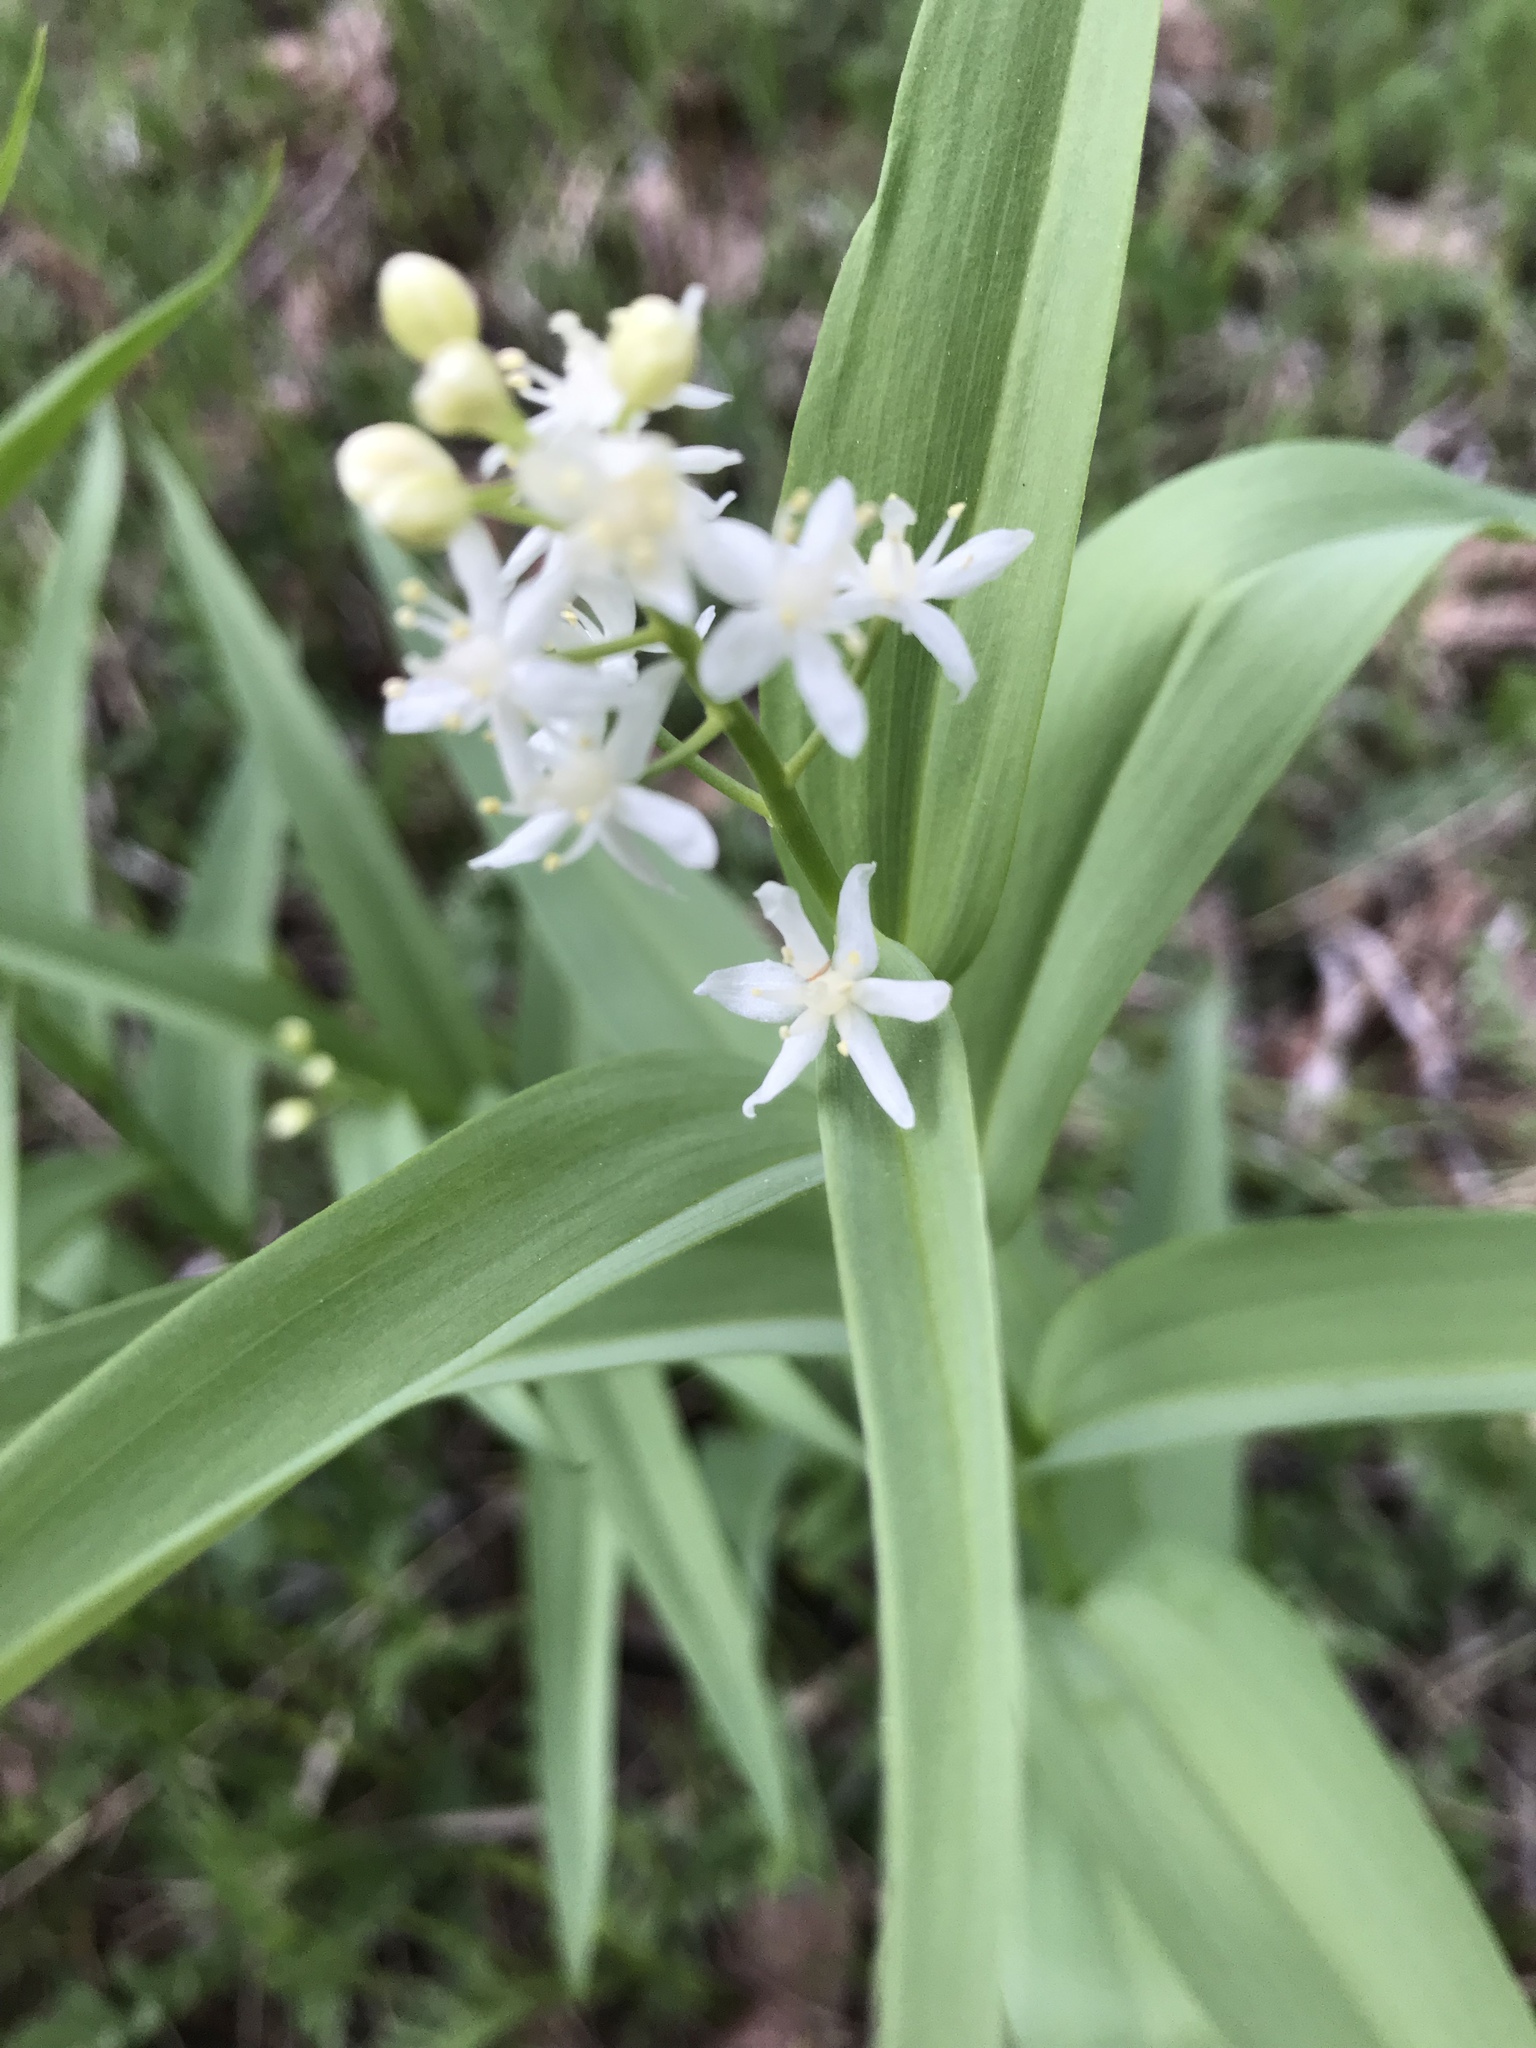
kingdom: Plantae
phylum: Tracheophyta
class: Liliopsida
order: Asparagales
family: Asparagaceae
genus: Maianthemum
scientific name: Maianthemum stellatum
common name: Little false solomon's seal
